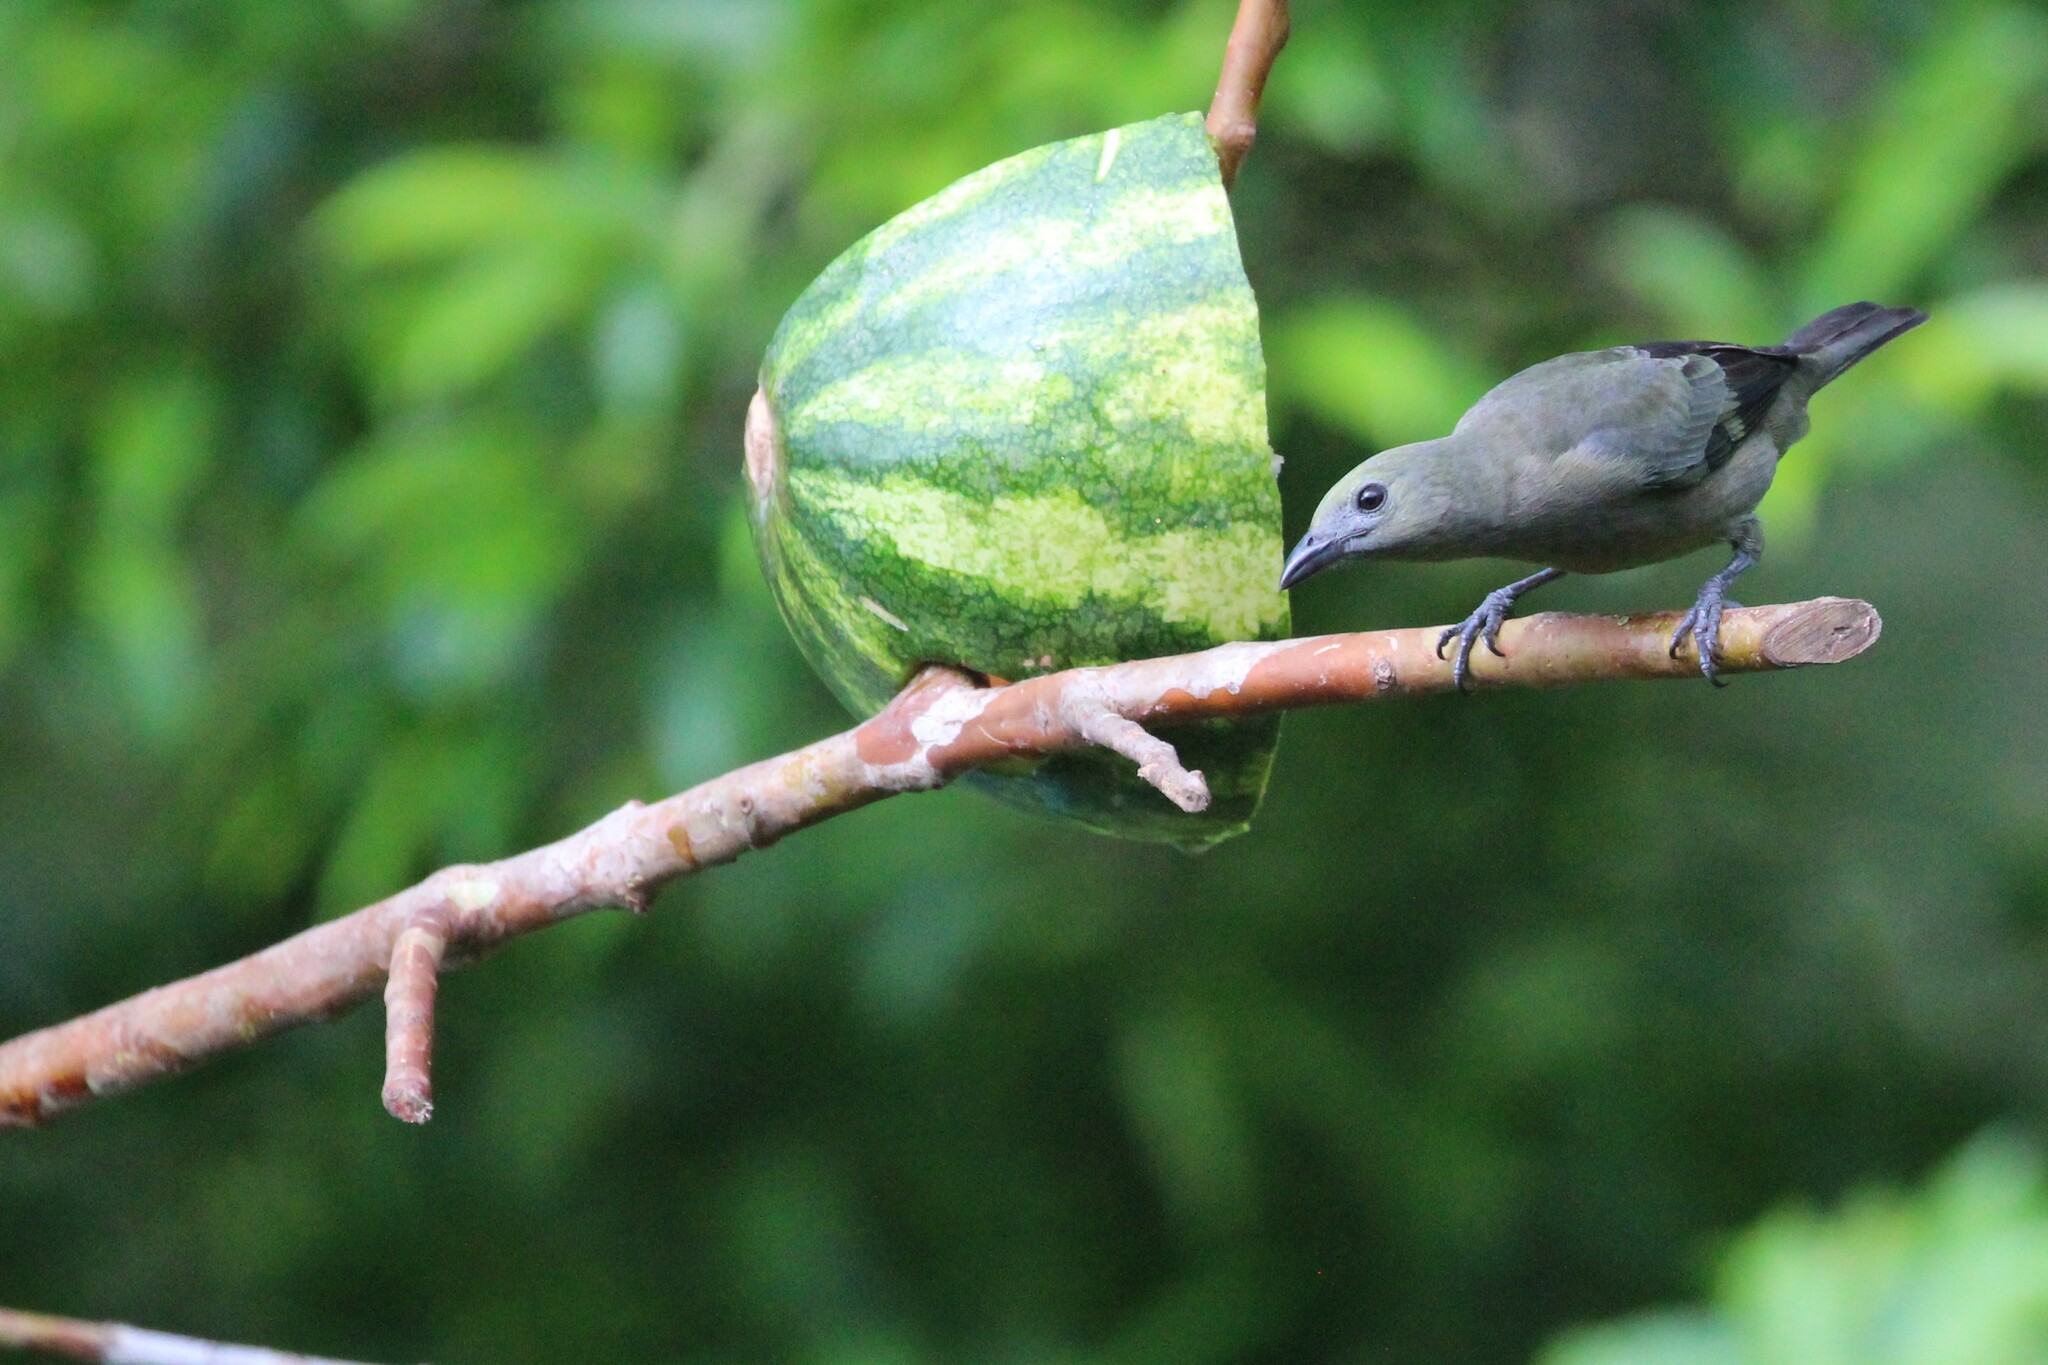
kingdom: Animalia
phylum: Chordata
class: Aves
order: Passeriformes
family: Thraupidae
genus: Thraupis
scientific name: Thraupis palmarum
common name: Palm tanager
